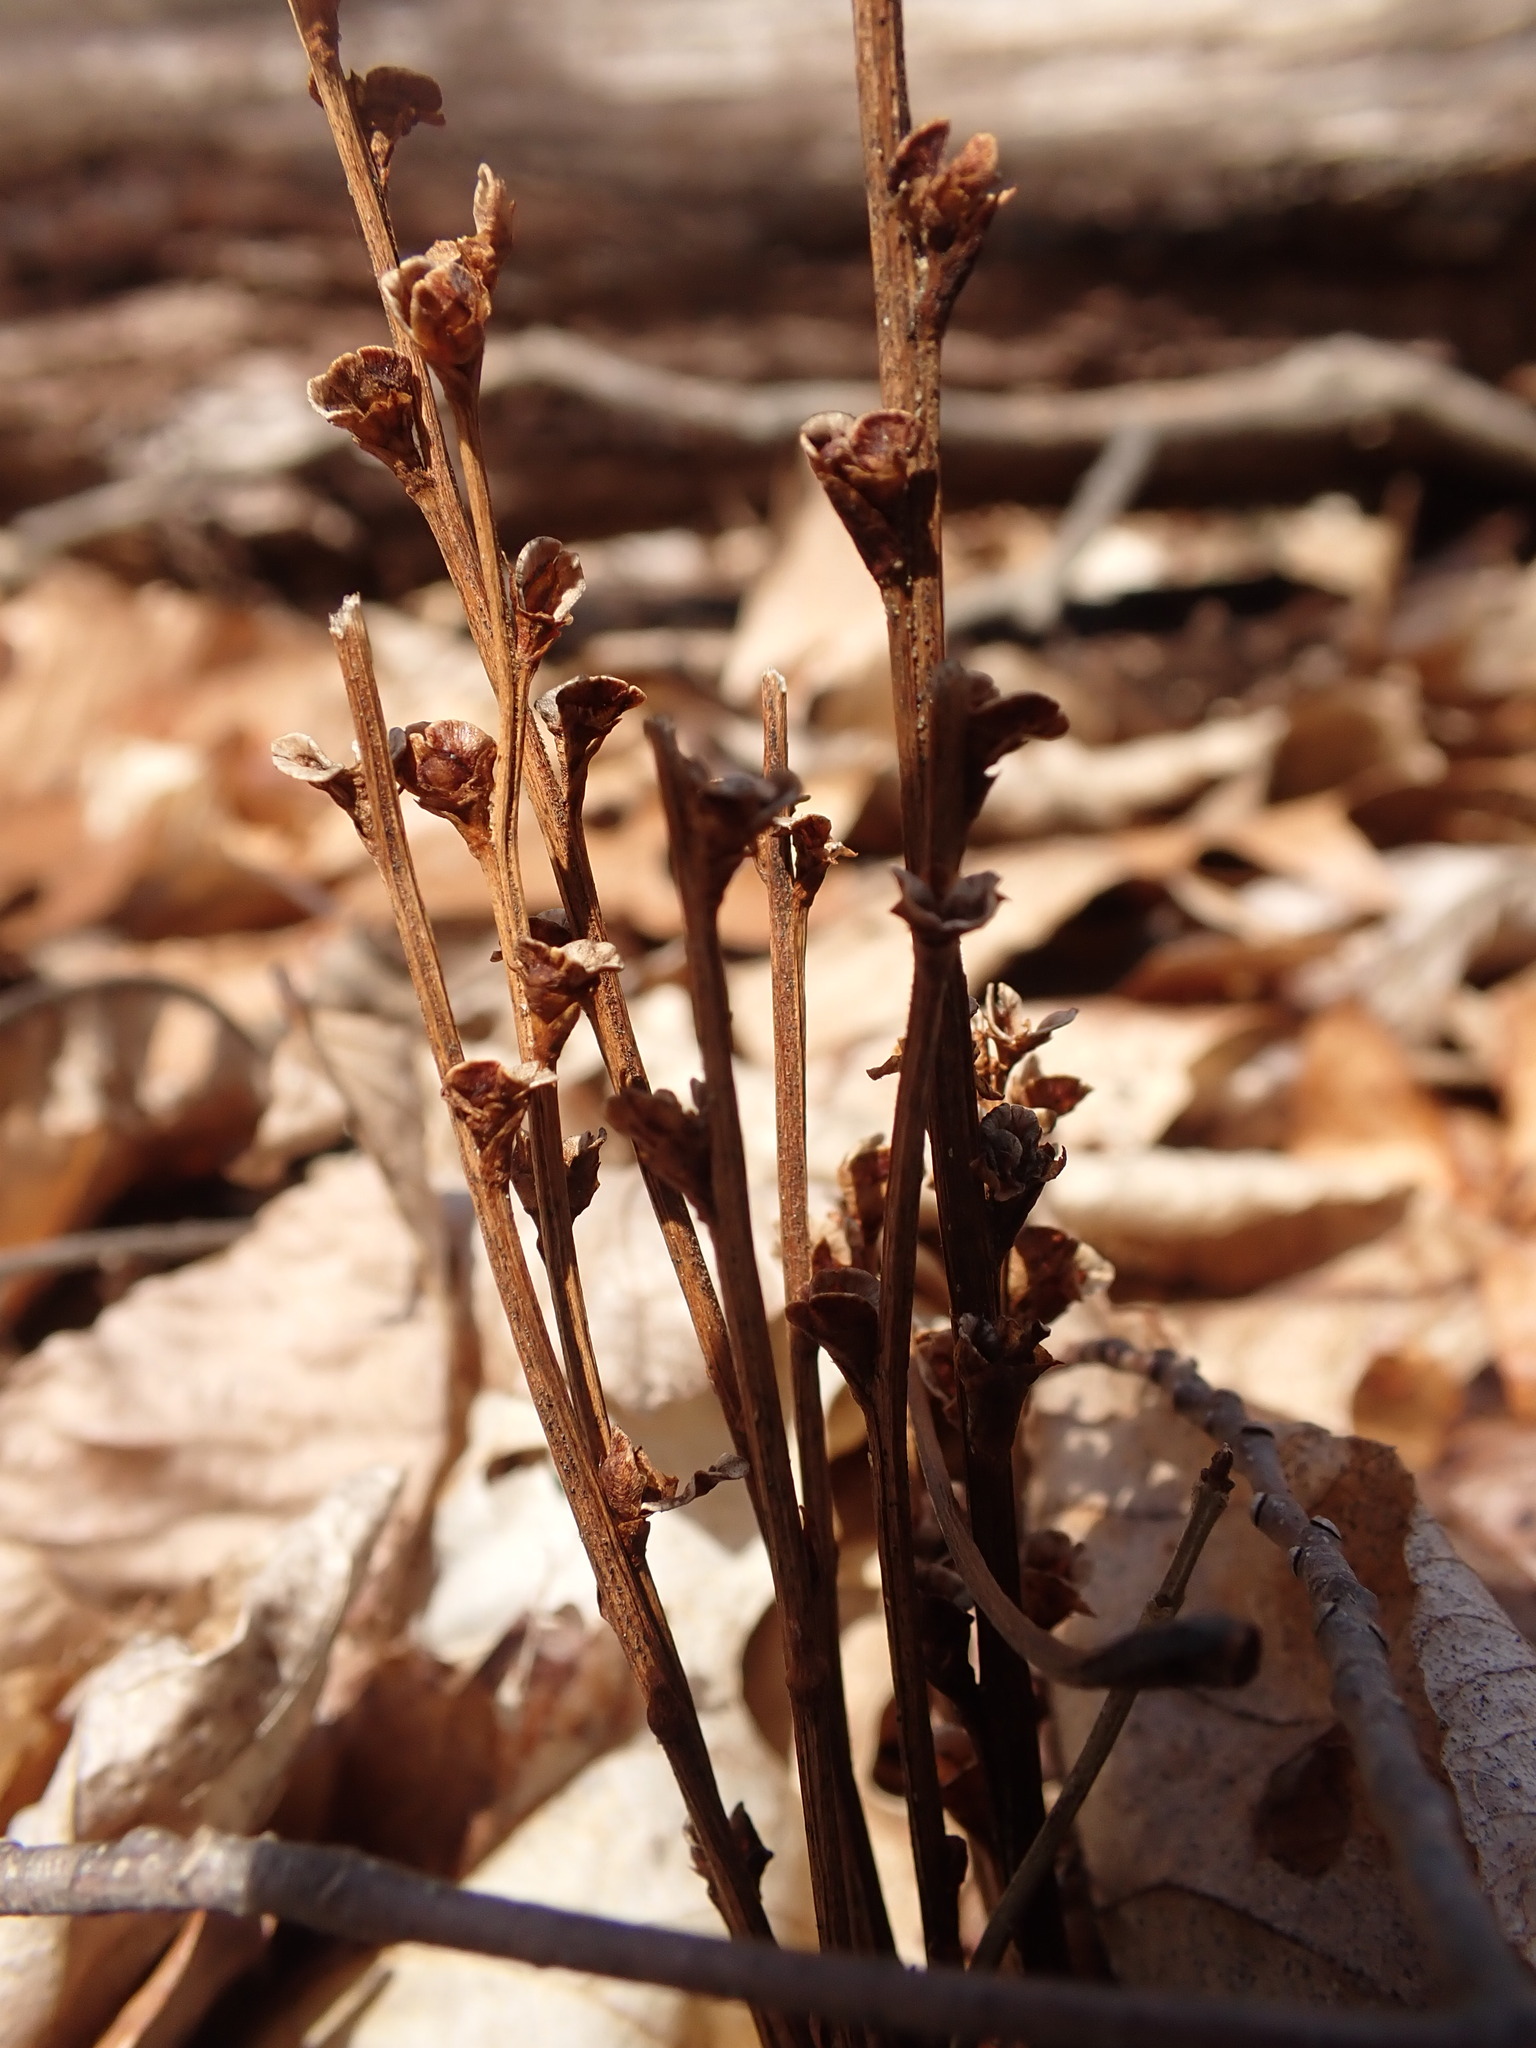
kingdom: Plantae
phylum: Tracheophyta
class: Magnoliopsida
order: Lamiales
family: Orobanchaceae
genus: Epifagus
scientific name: Epifagus virginiana
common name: Beechdrops
